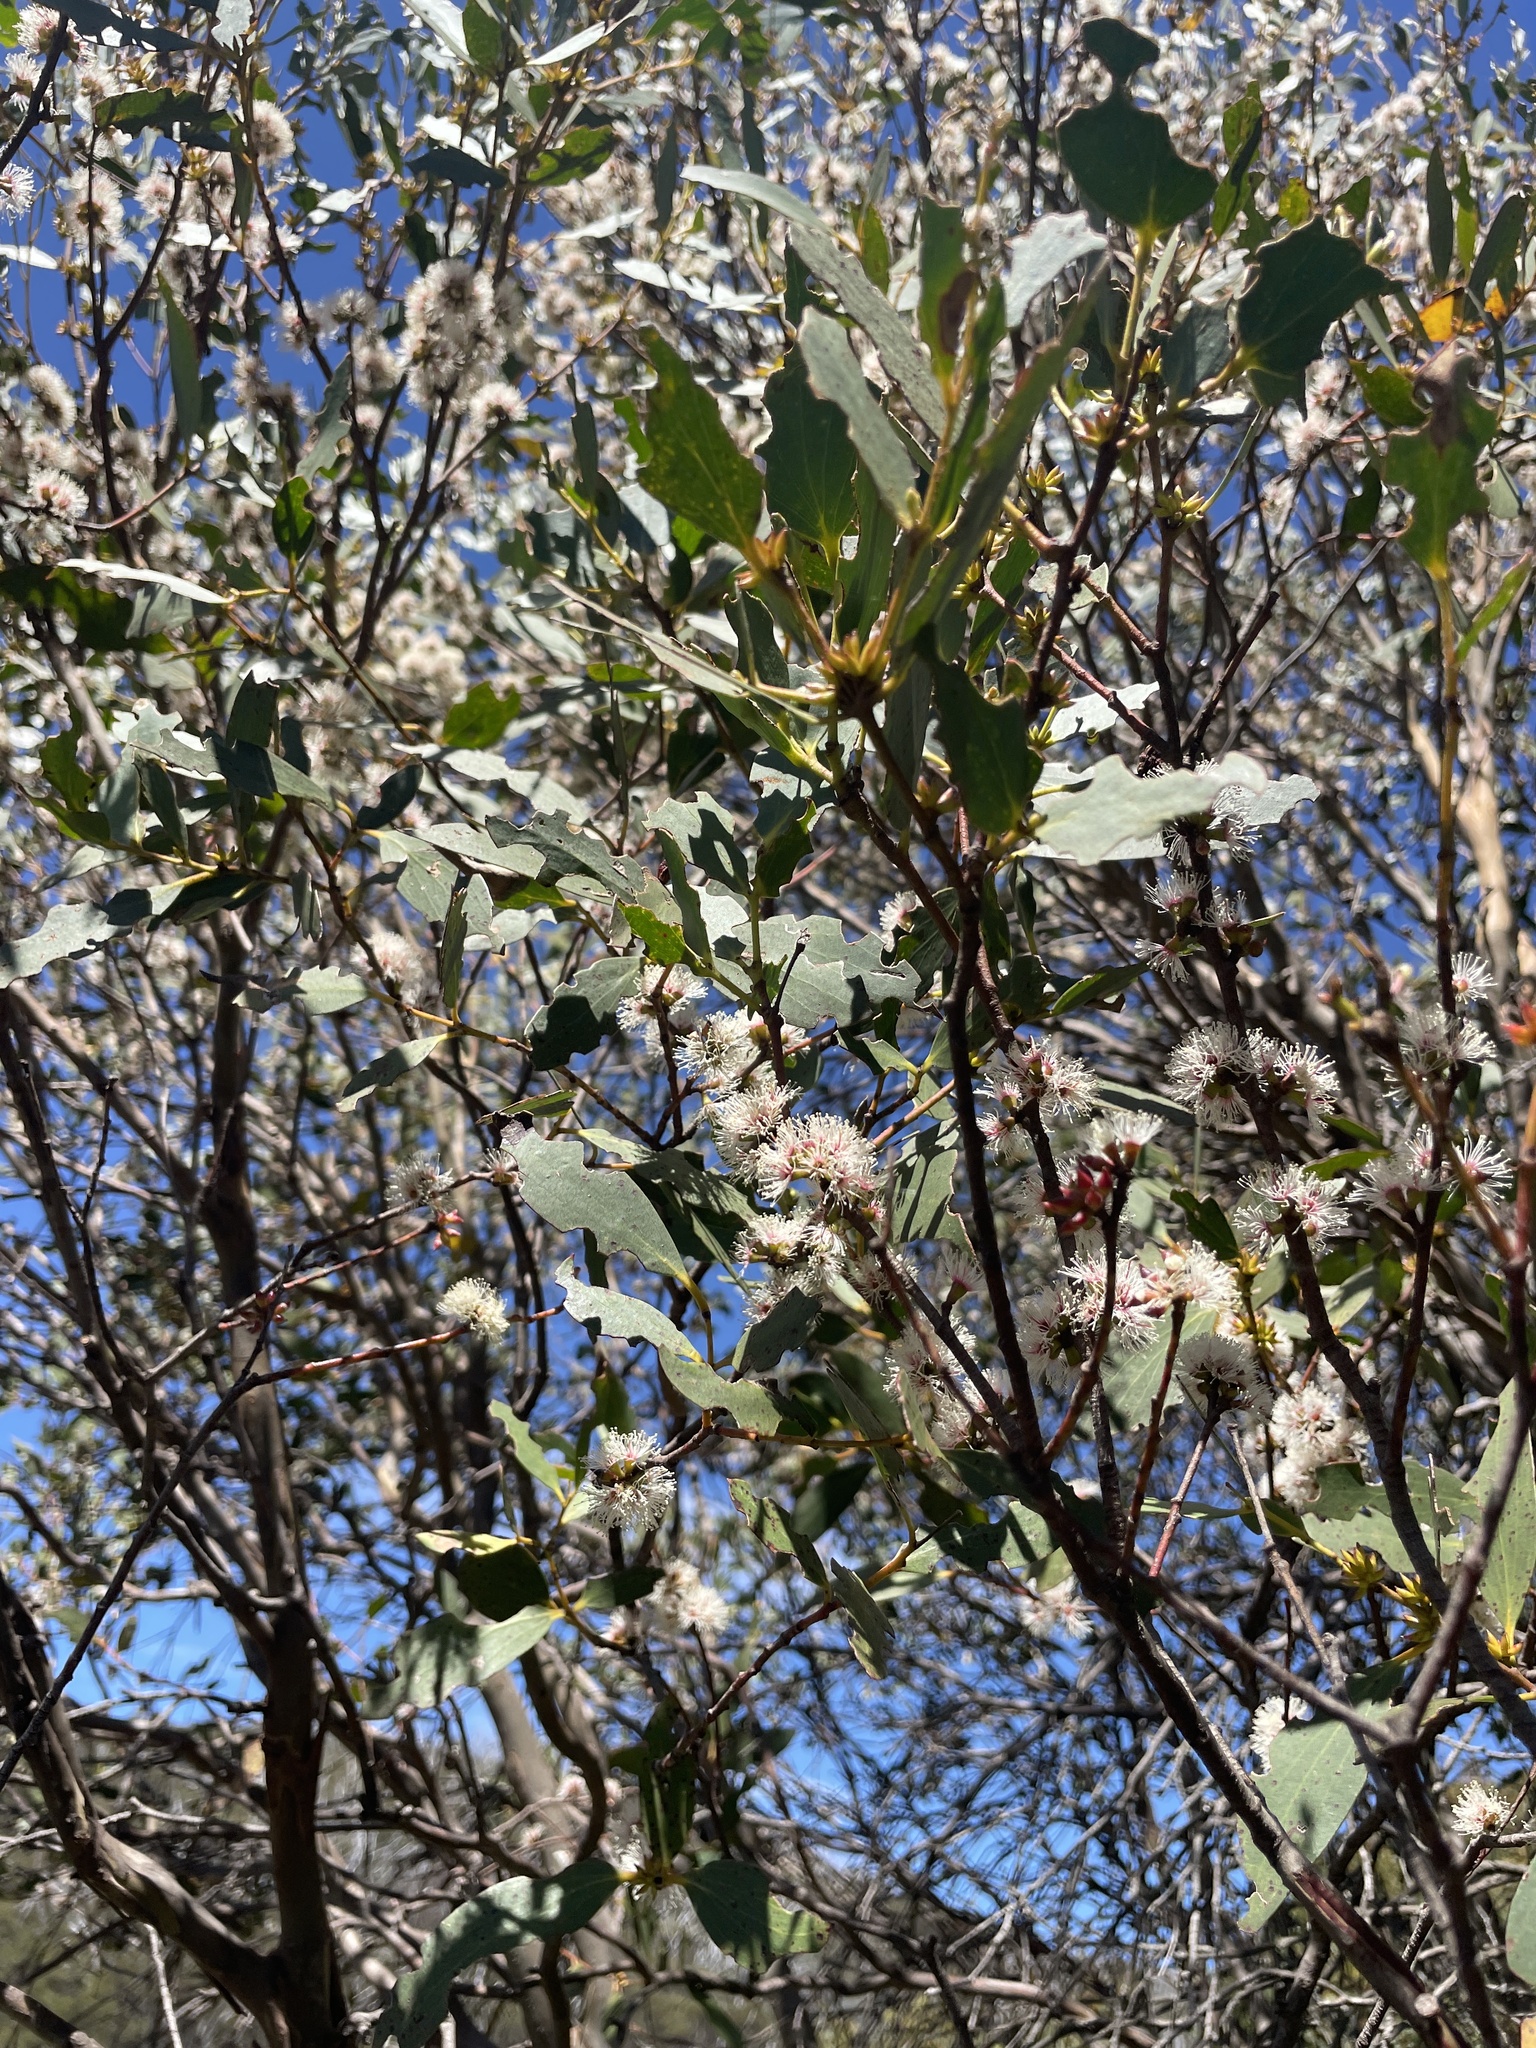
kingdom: Plantae
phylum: Tracheophyta
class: Magnoliopsida
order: Myrtales
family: Myrtaceae
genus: Eucalyptus
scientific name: Eucalyptus stellulata
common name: Black sallee
